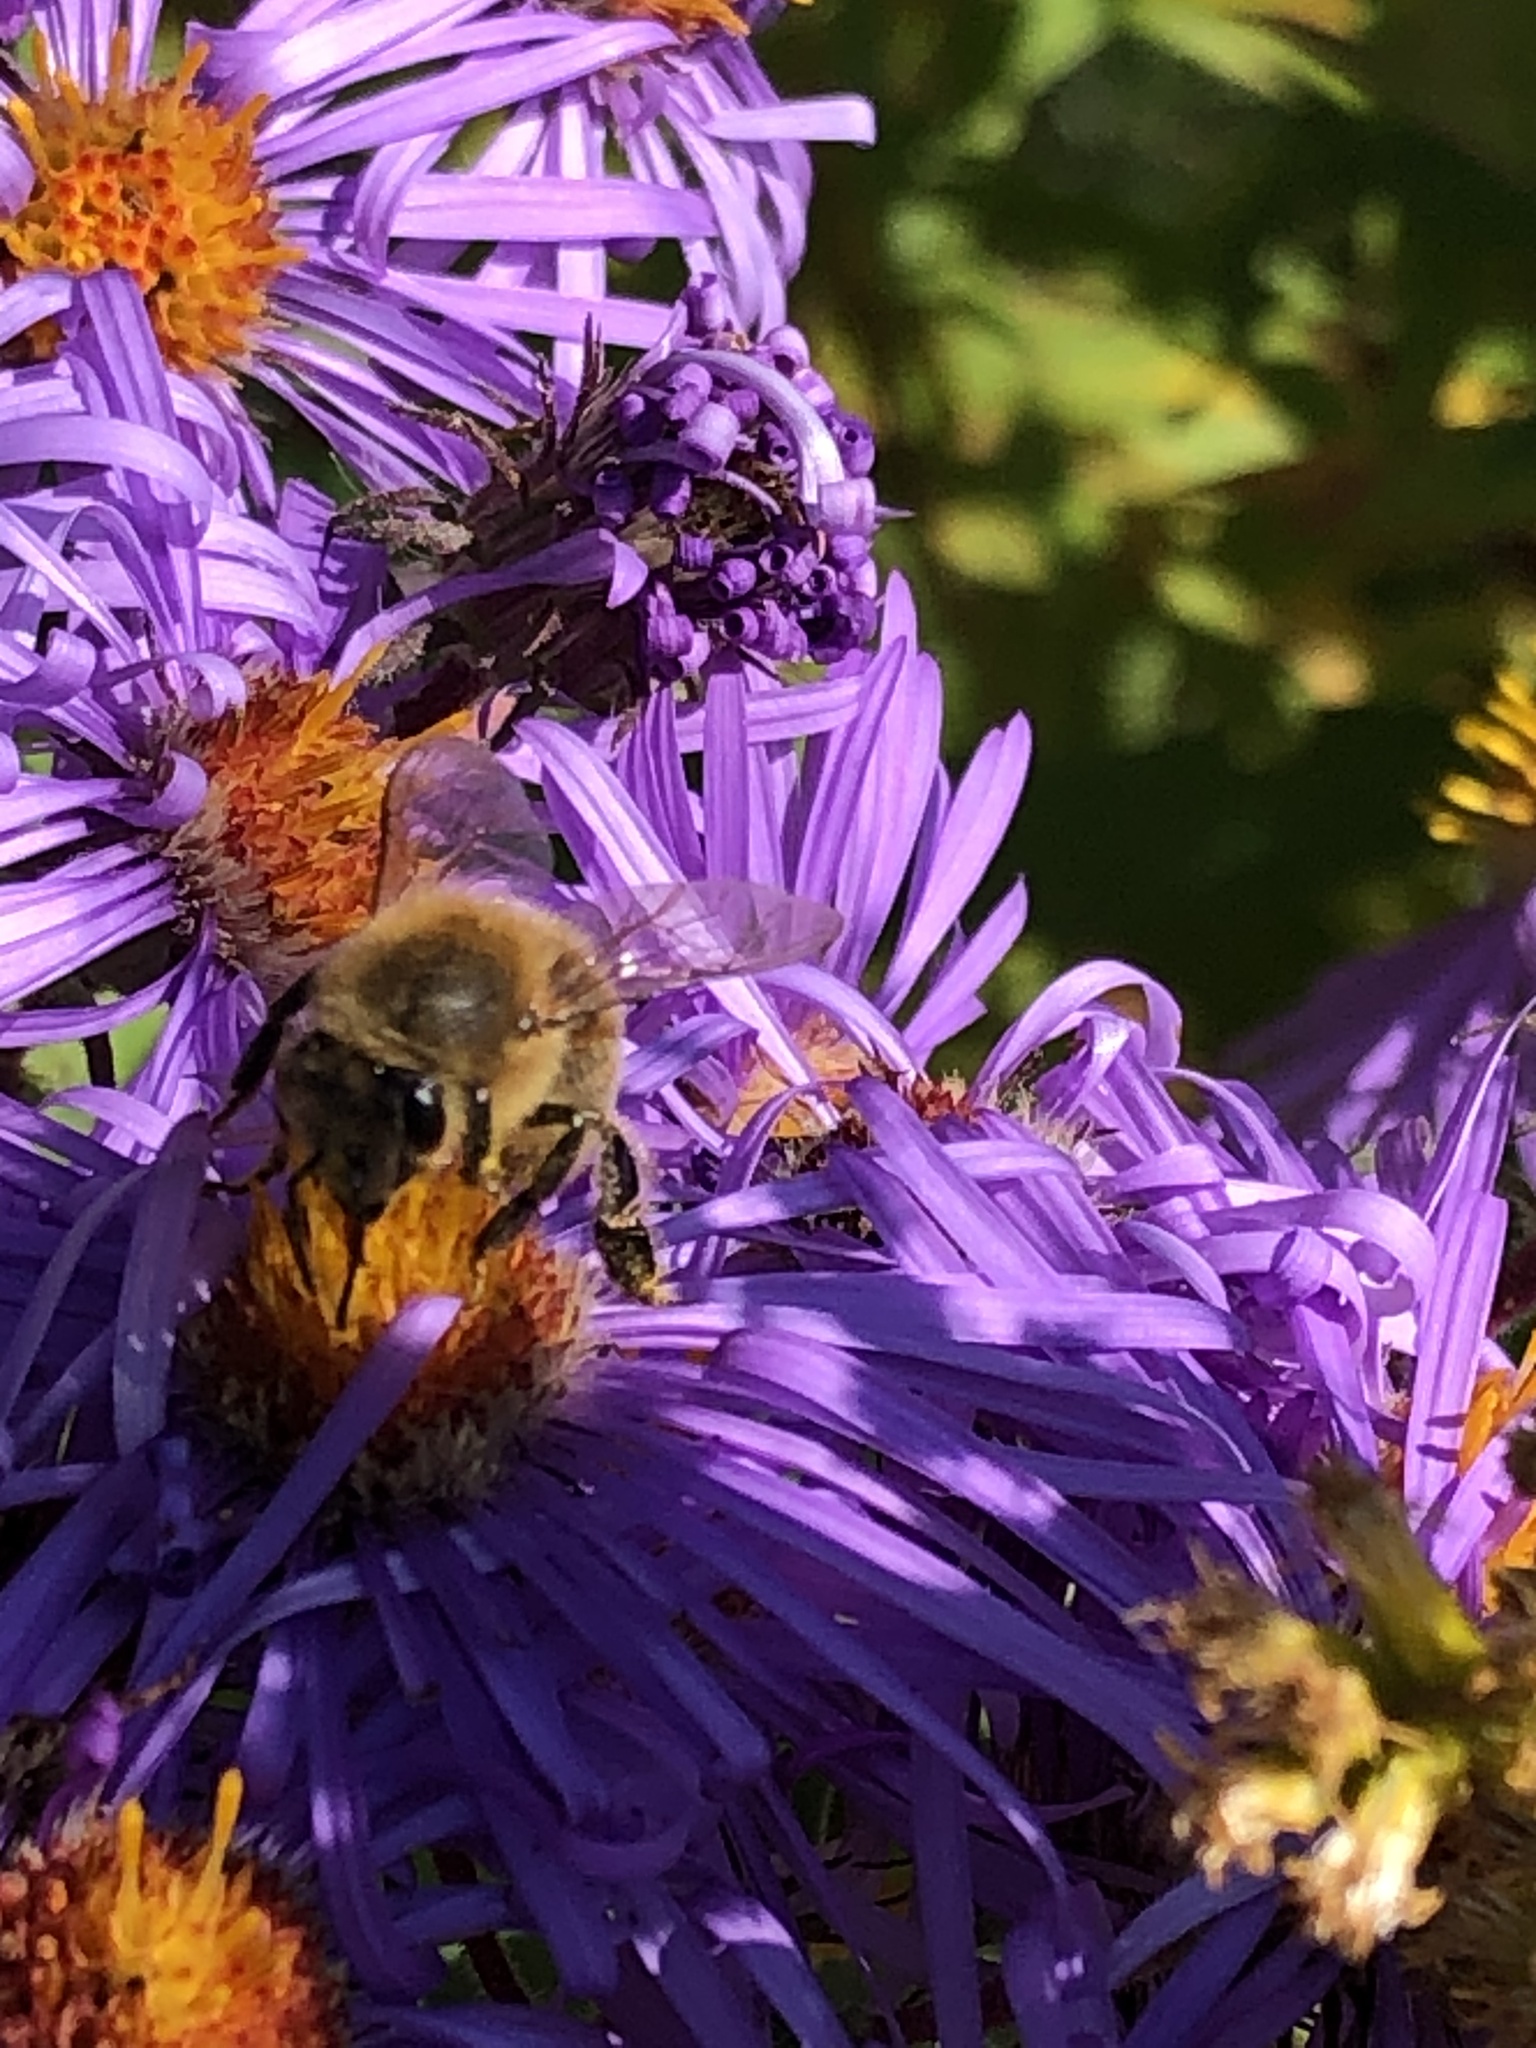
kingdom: Animalia
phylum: Arthropoda
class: Insecta
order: Hymenoptera
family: Apidae
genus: Apis
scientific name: Apis mellifera
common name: Honey bee
